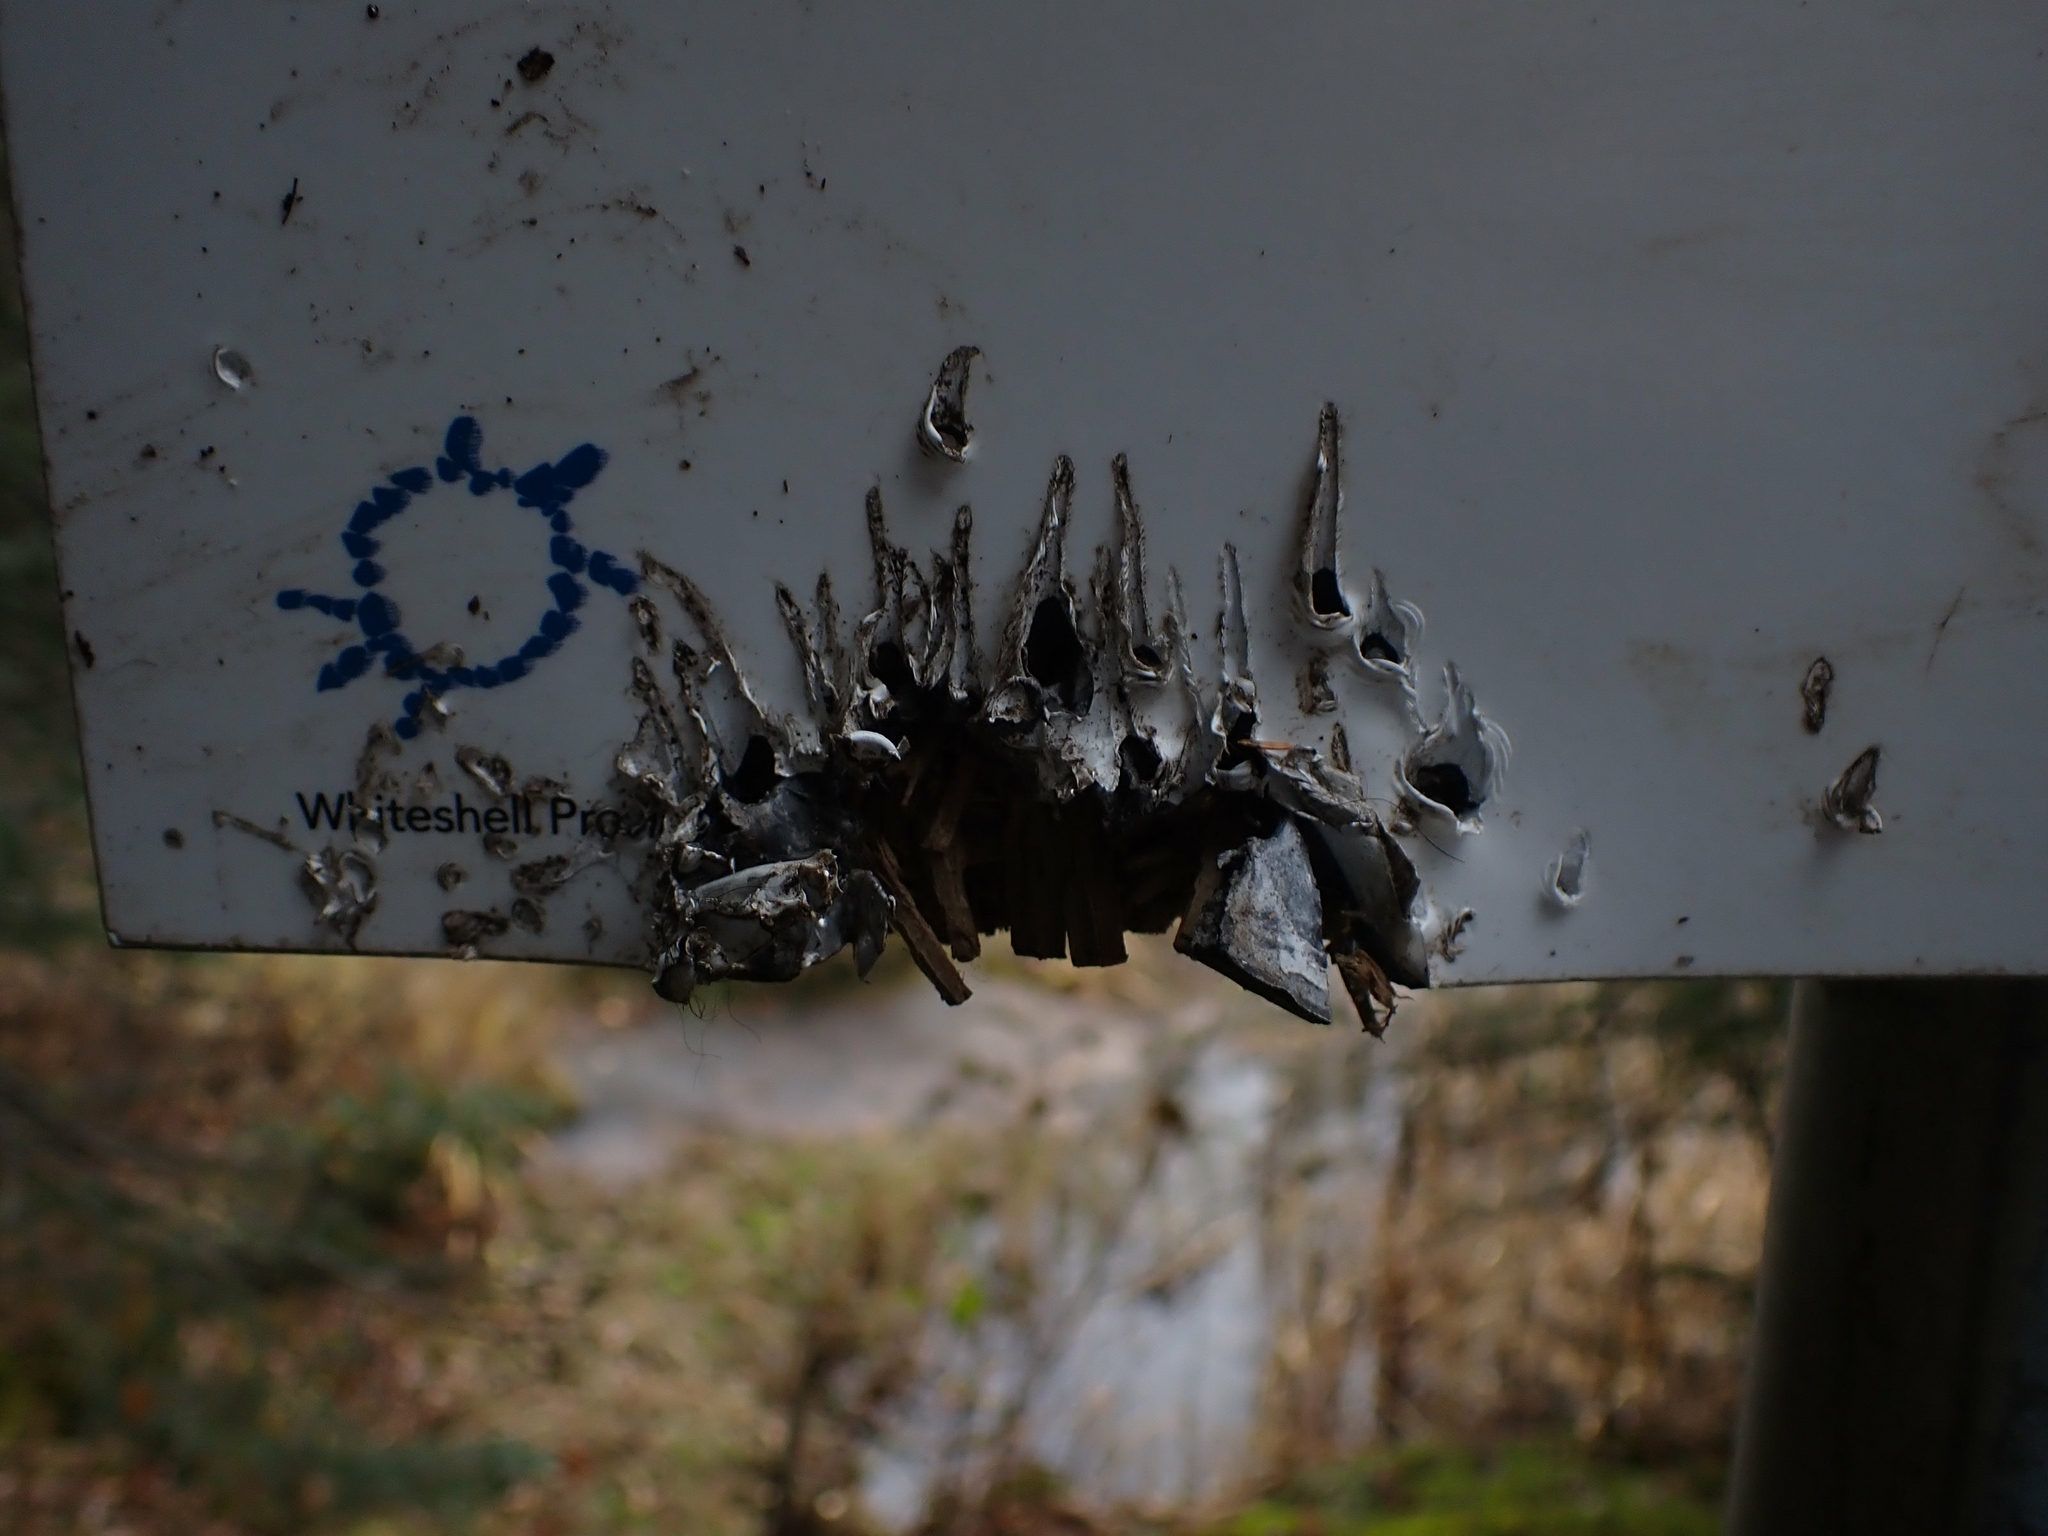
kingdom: Animalia
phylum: Chordata
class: Mammalia
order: Carnivora
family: Ursidae
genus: Ursus
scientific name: Ursus americanus
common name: American black bear
